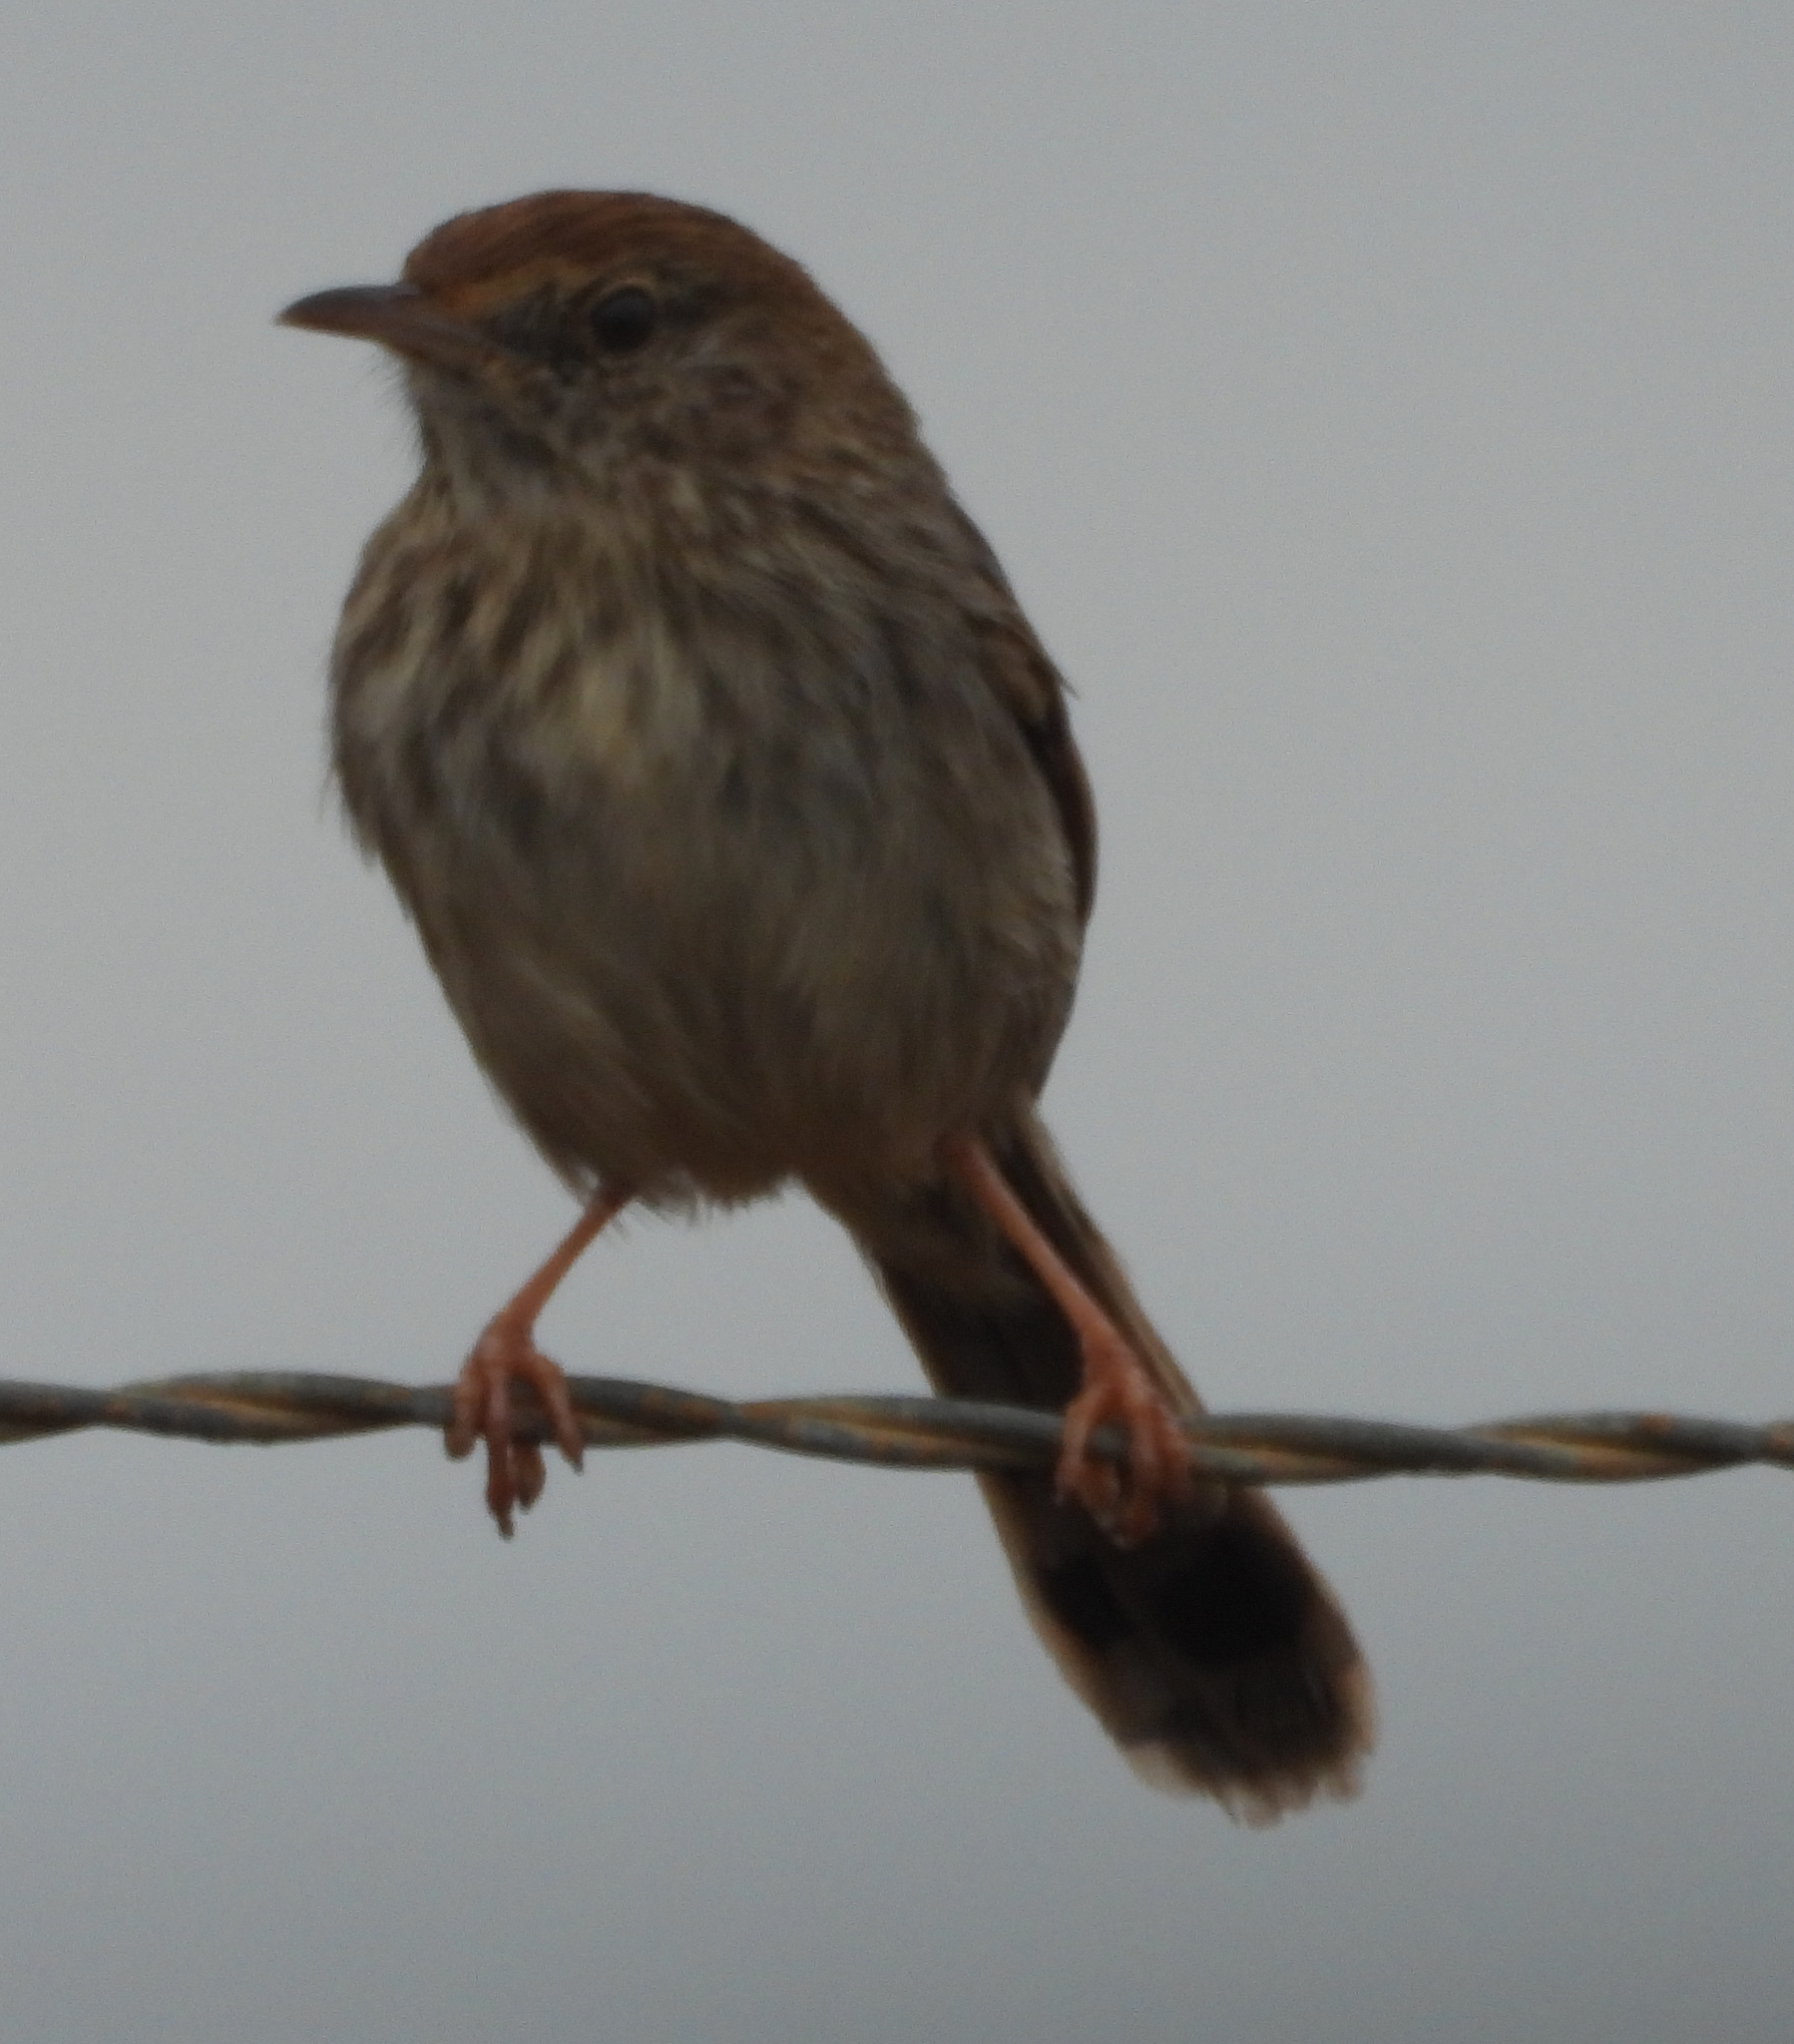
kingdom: Animalia
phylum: Chordata
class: Aves
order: Passeriformes
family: Cisticolidae
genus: Cisticola
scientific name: Cisticola subruficapilla
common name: Grey-backed cisticola
